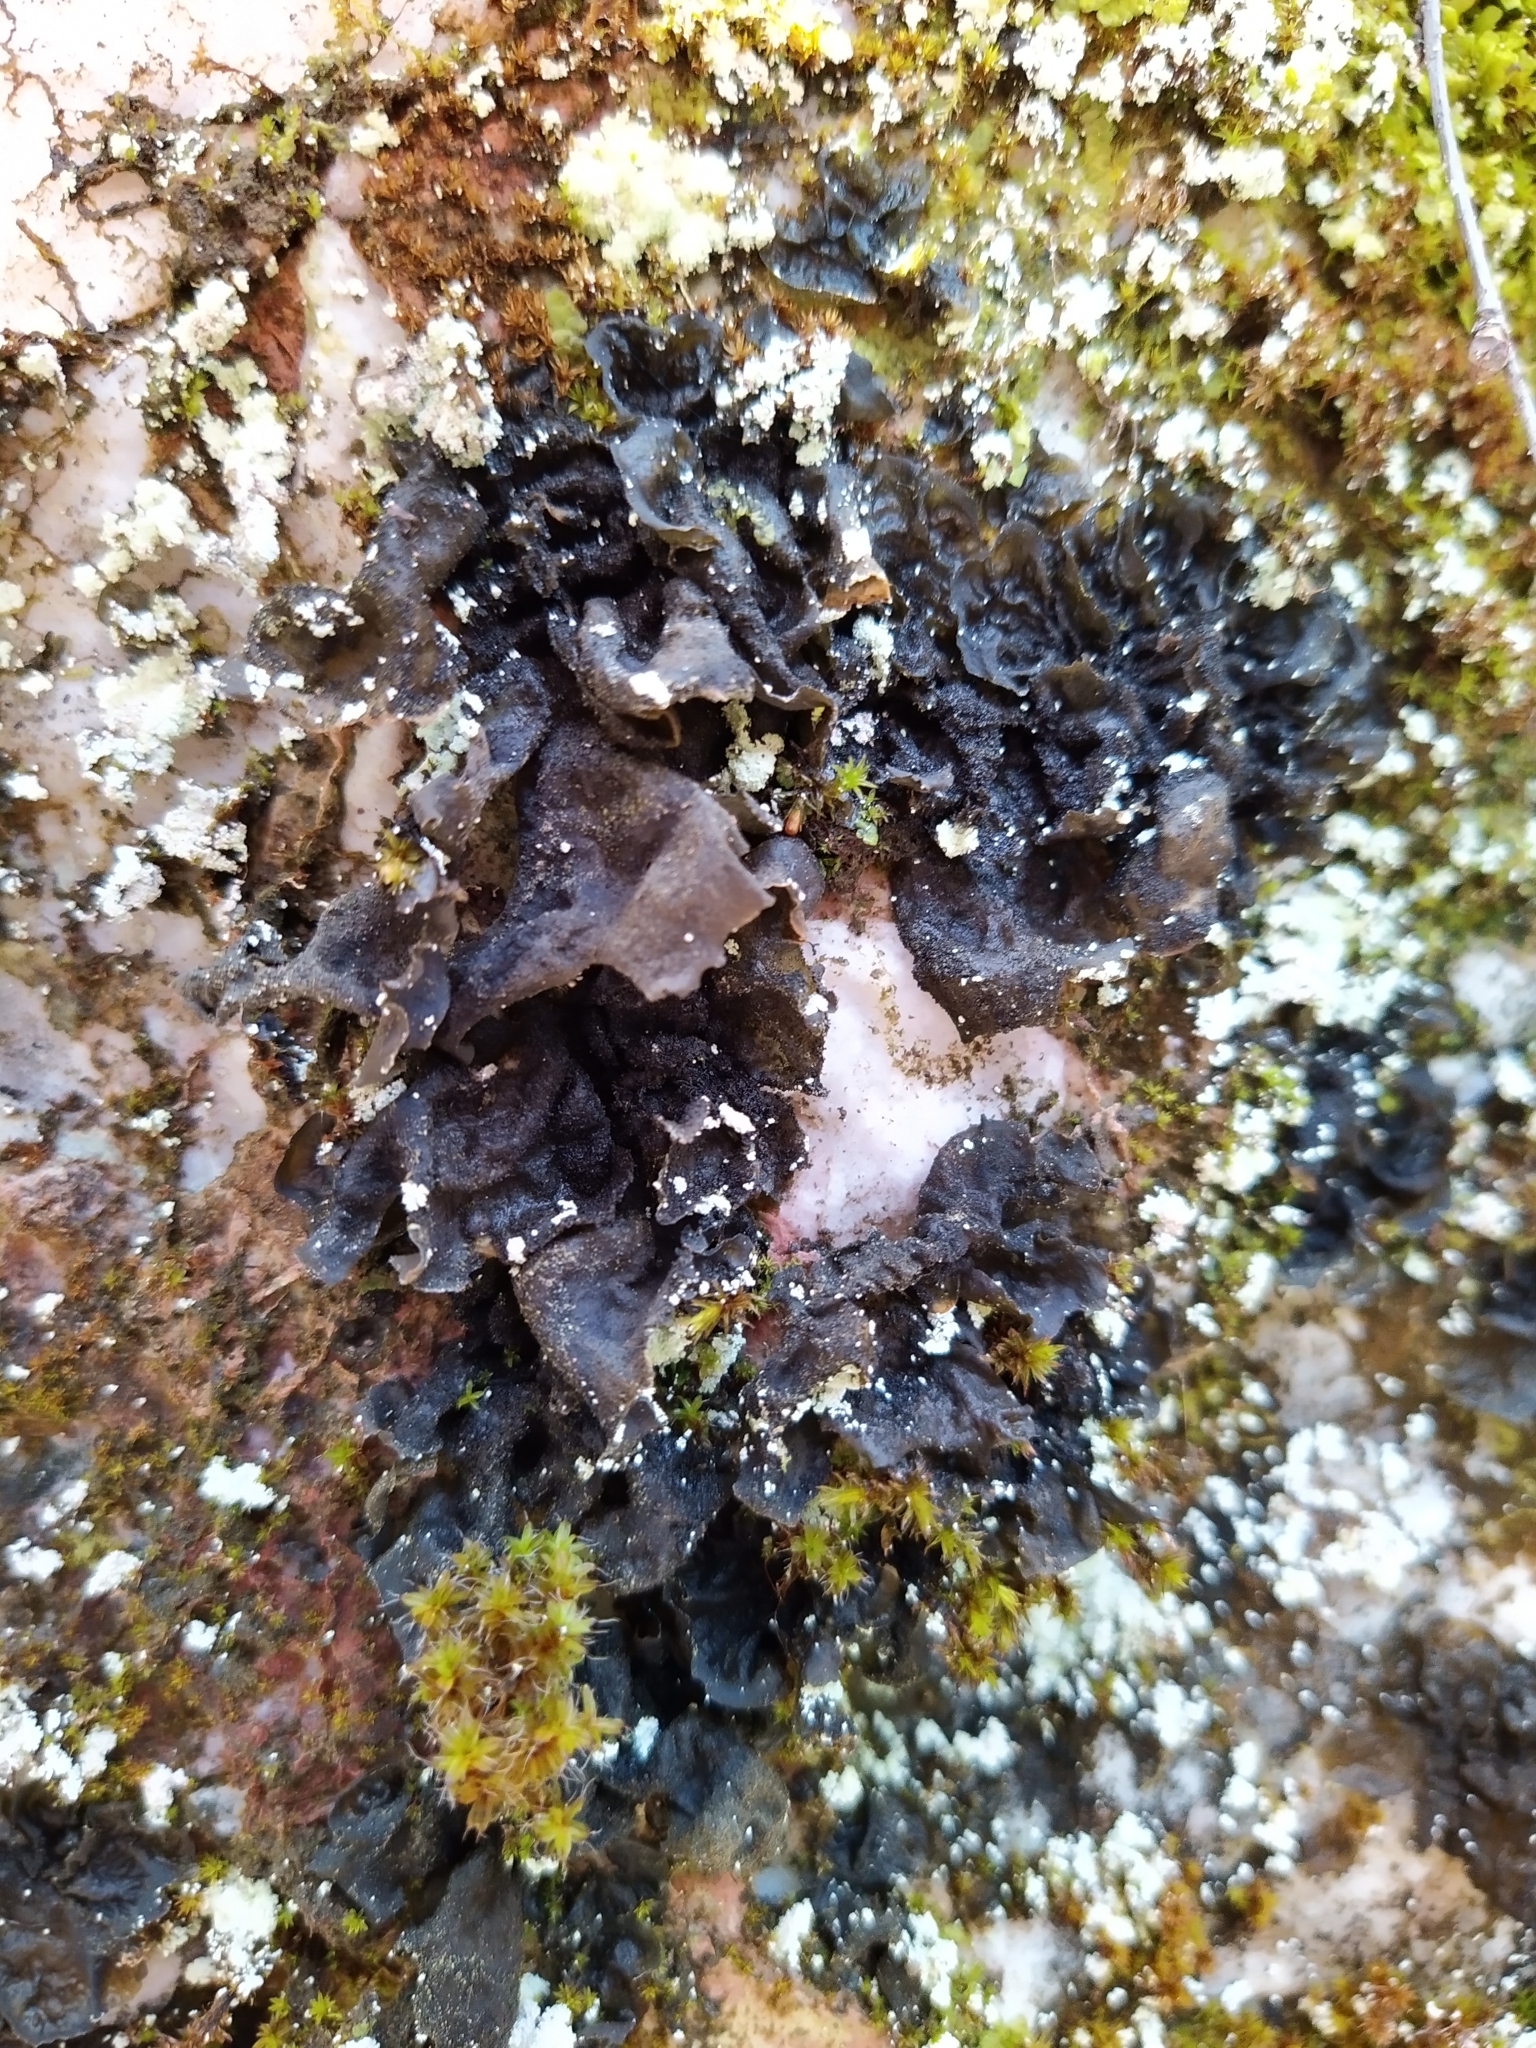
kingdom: Fungi
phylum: Ascomycota
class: Lecanoromycetes
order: Peltigerales
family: Collemataceae
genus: Collema
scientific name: Collema flaccidum
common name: Butterfly jelly lichen
